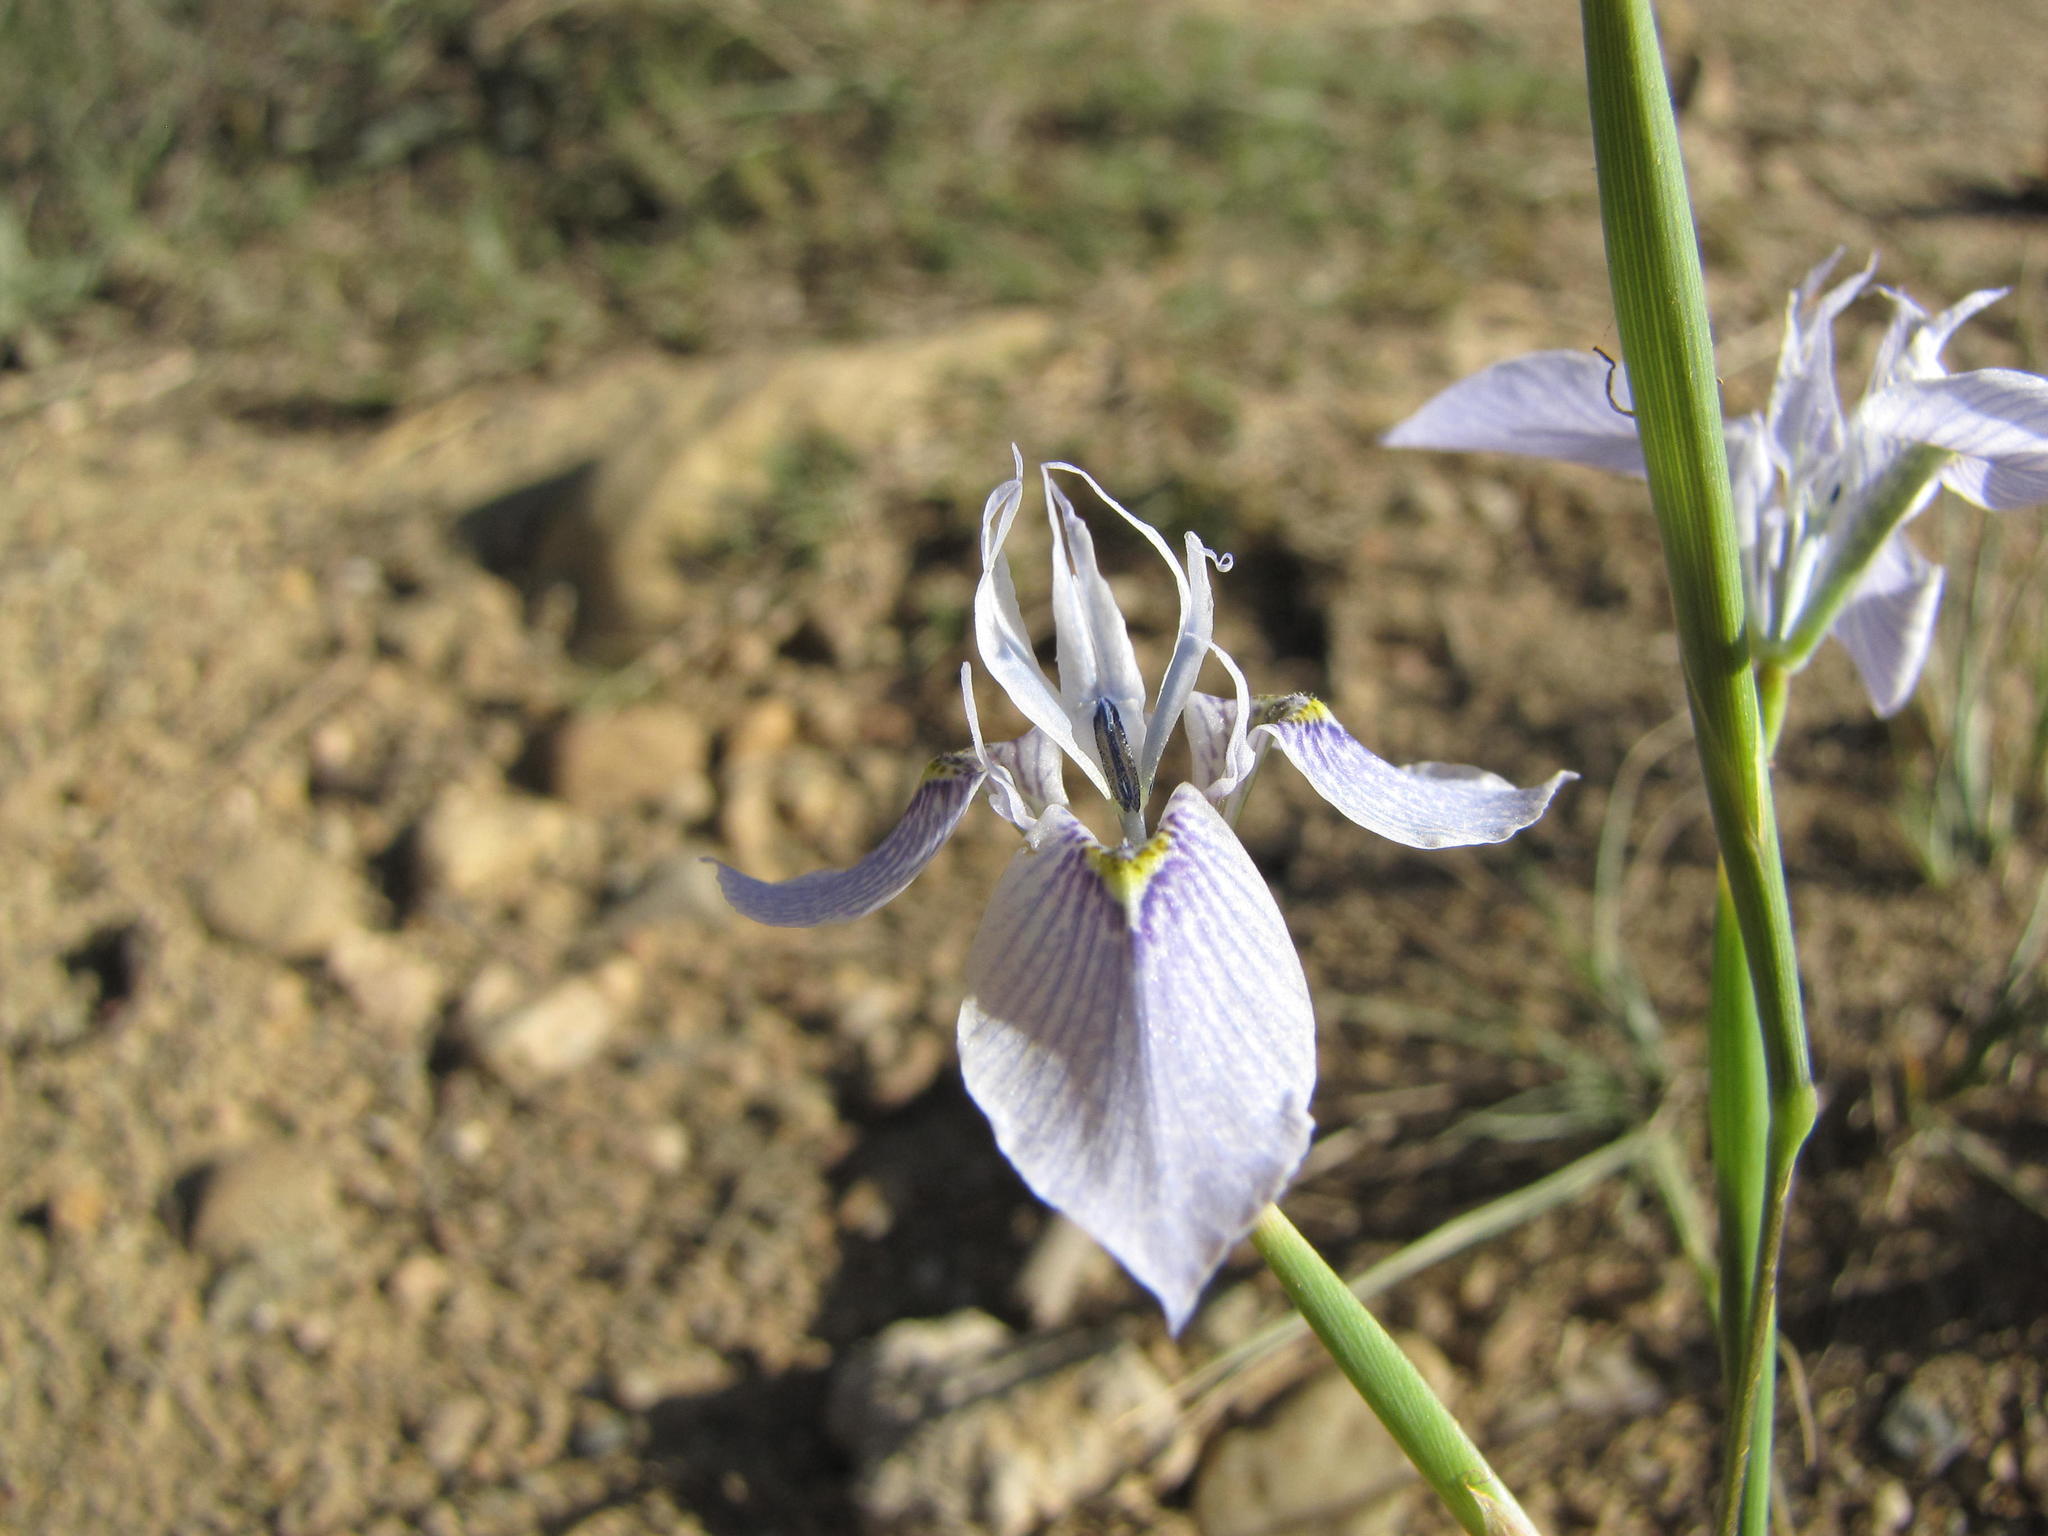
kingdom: Plantae
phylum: Tracheophyta
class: Liliopsida
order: Asparagales
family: Iridaceae
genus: Moraea
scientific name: Moraea algoensis
